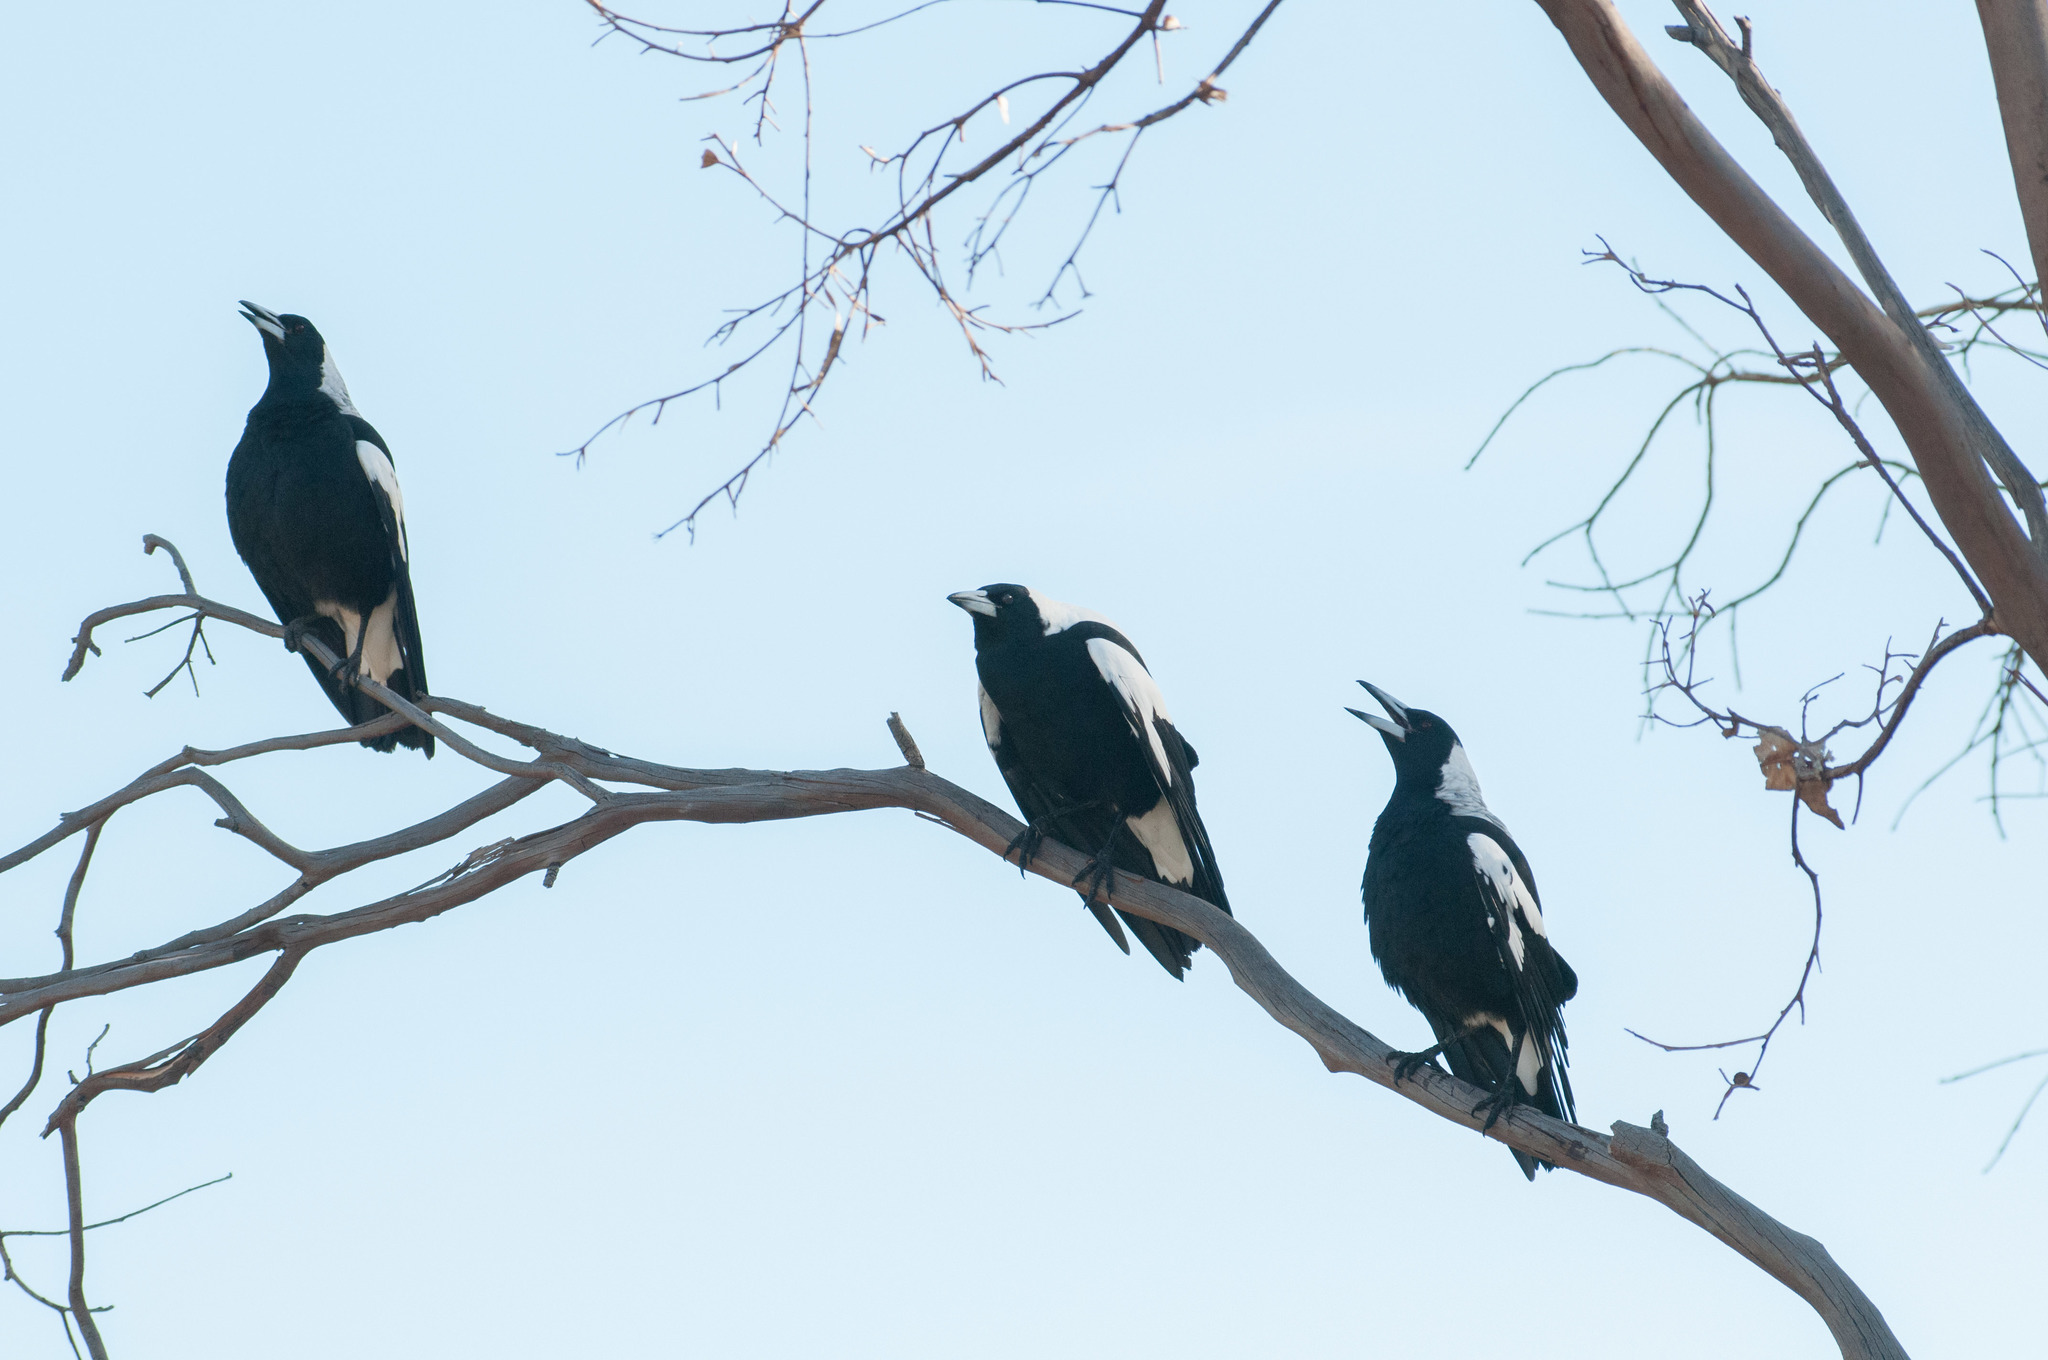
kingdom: Animalia
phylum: Chordata
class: Aves
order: Passeriformes
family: Cracticidae
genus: Gymnorhina
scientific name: Gymnorhina tibicen
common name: Australian magpie
